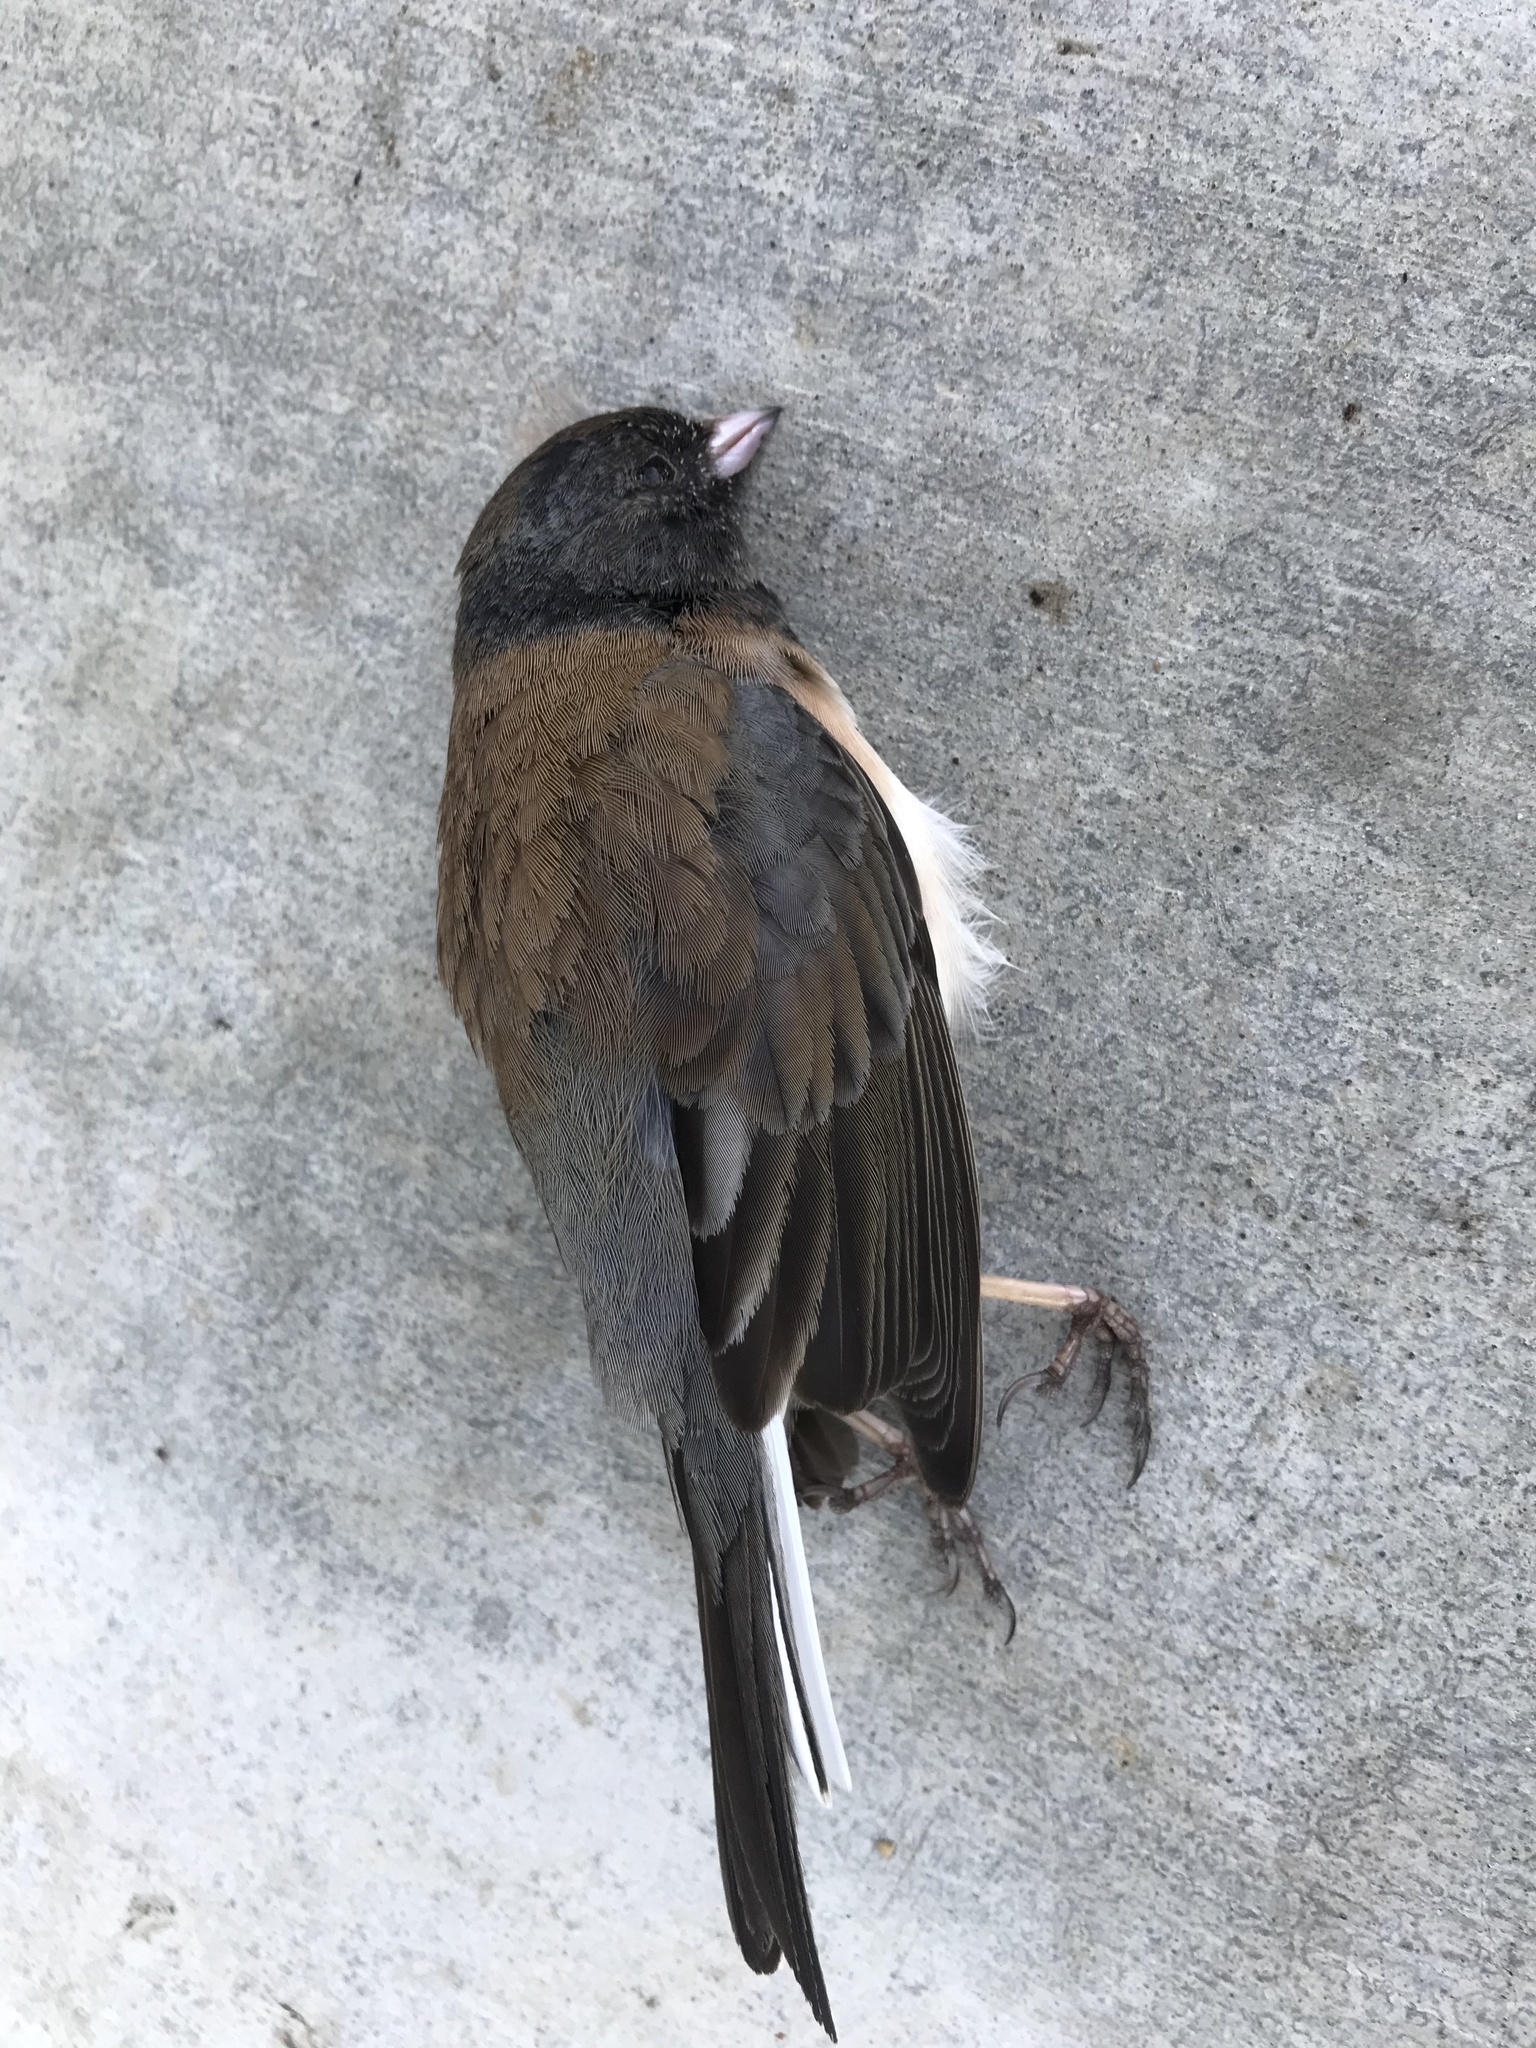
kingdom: Animalia
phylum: Chordata
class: Aves
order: Passeriformes
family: Passerellidae
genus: Junco
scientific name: Junco hyemalis
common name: Dark-eyed junco
